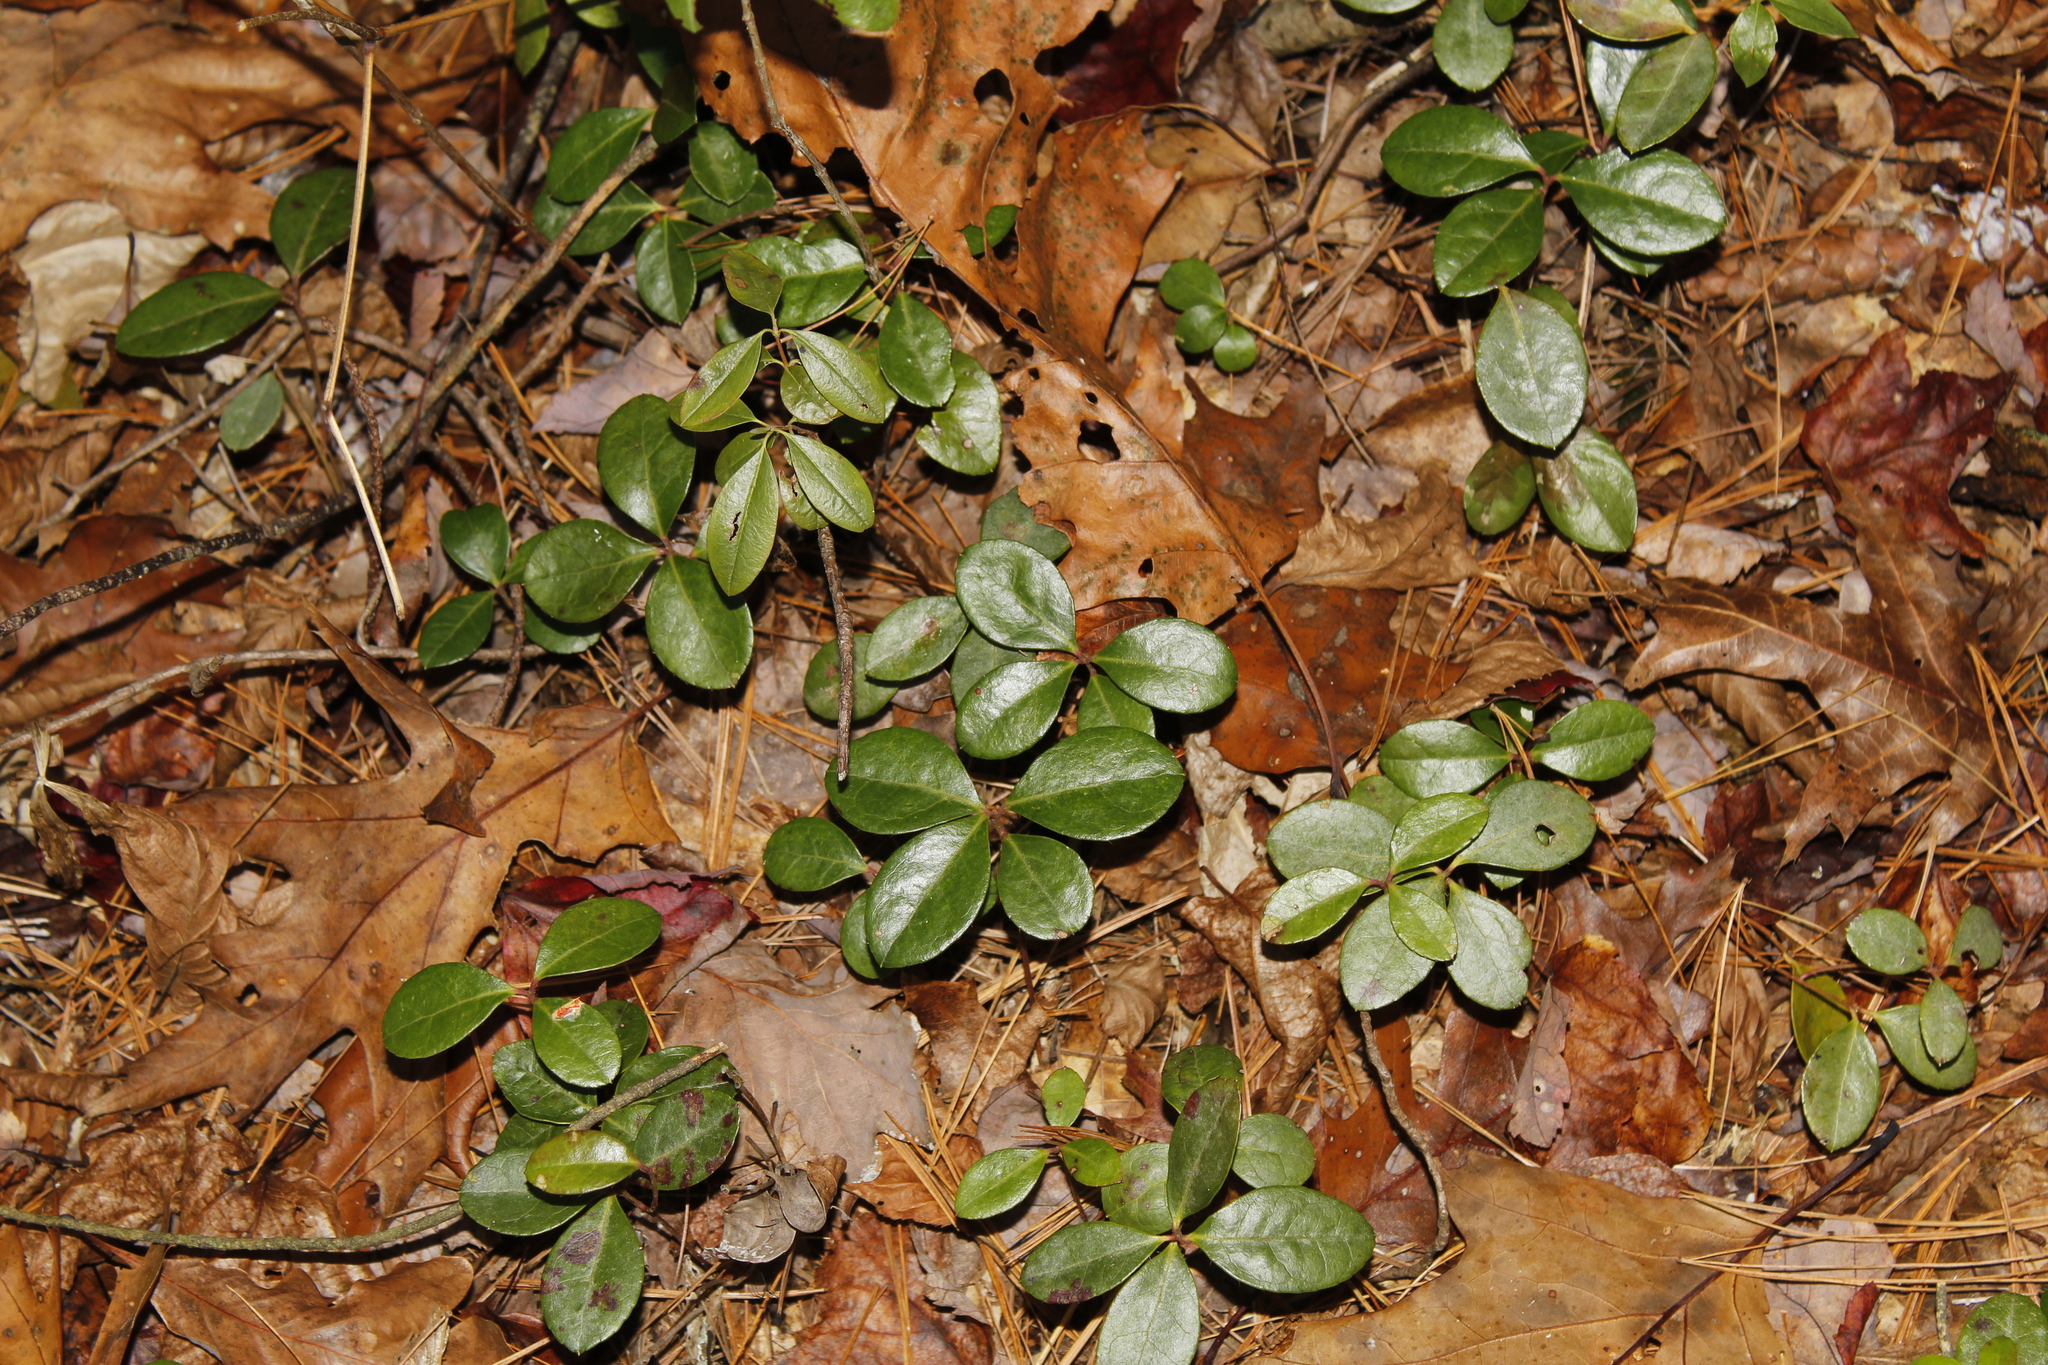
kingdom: Plantae
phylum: Tracheophyta
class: Magnoliopsida
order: Ericales
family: Ericaceae
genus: Gaultheria
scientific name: Gaultheria procumbens
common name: Checkerberry
